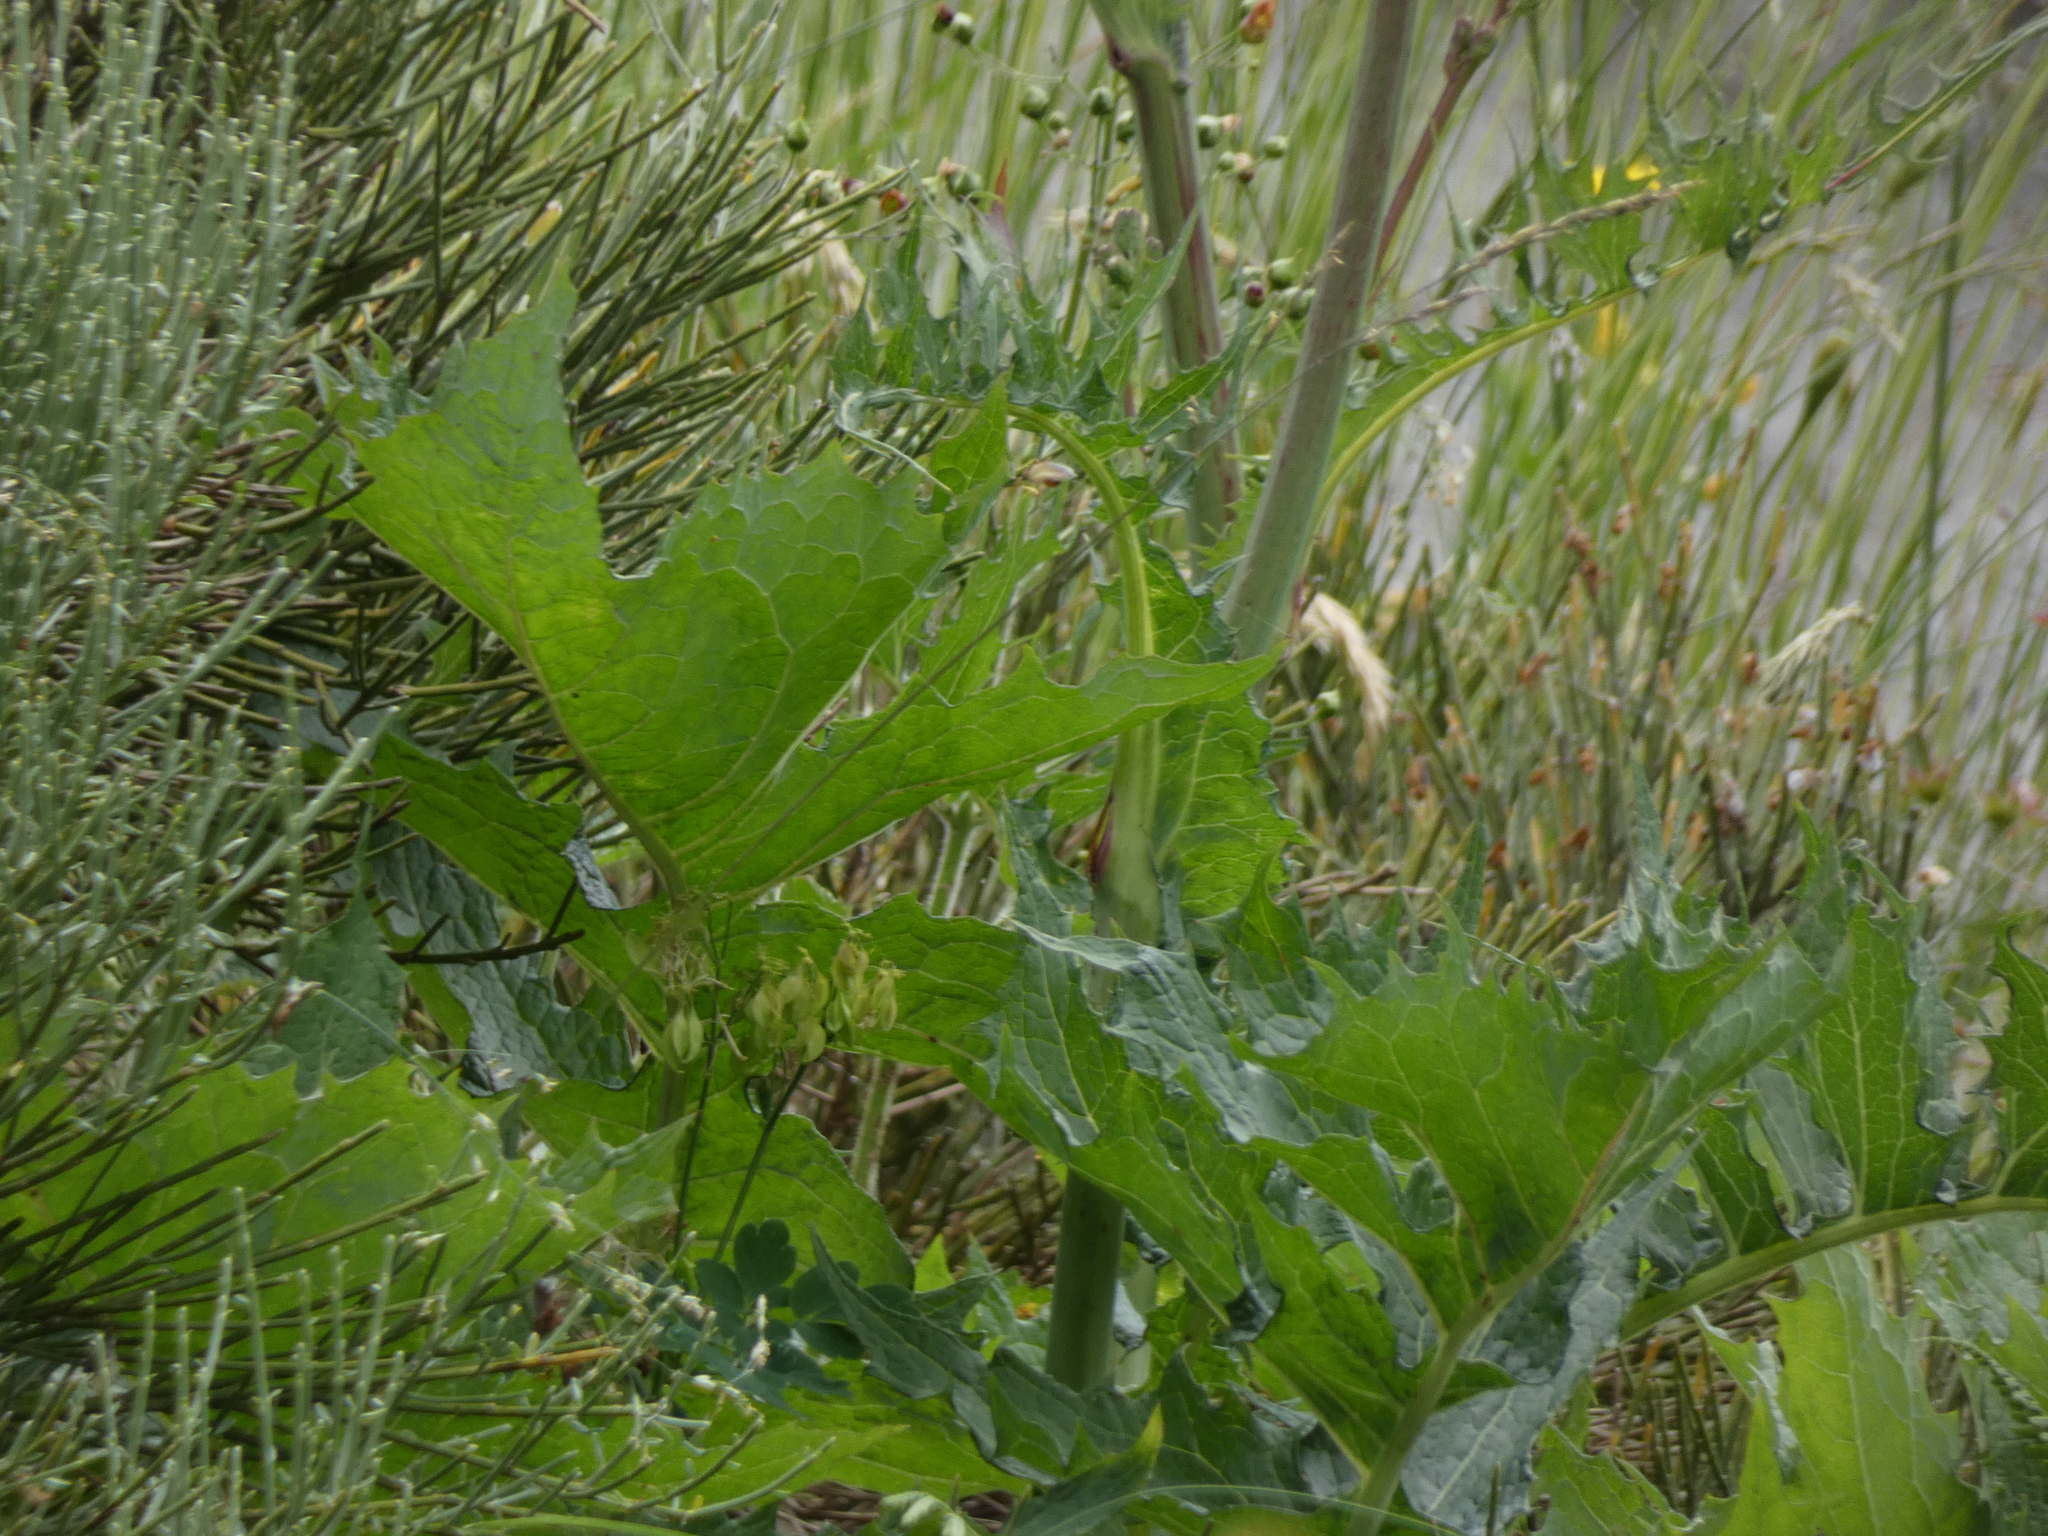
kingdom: Plantae
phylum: Tracheophyta
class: Magnoliopsida
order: Asterales
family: Asteraceae
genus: Lactuca
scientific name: Lactuca plumieri
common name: Hairless blue-sow-thistle
